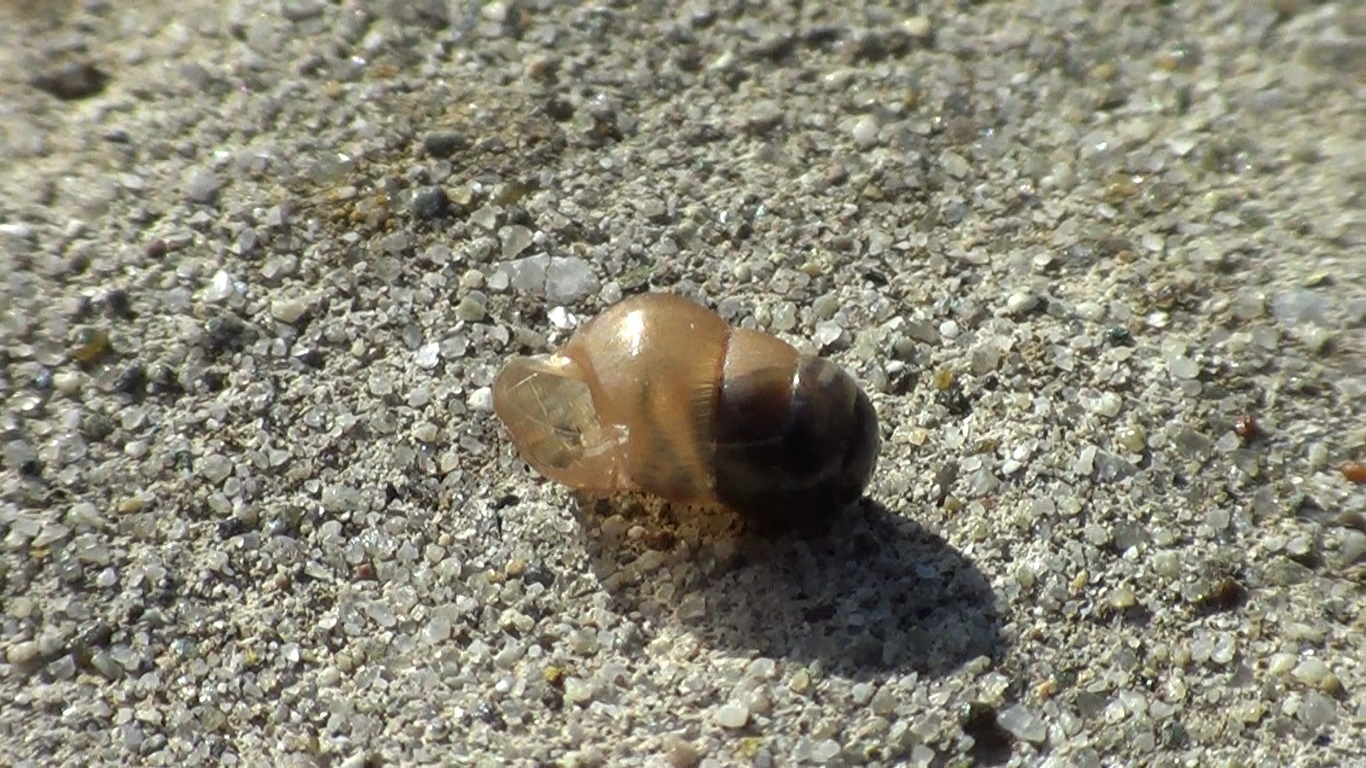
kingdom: Animalia
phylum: Mollusca
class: Gastropoda
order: Stylommatophora
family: Achatinidae
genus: Rumina
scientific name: Rumina decollata
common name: Decollate snail
